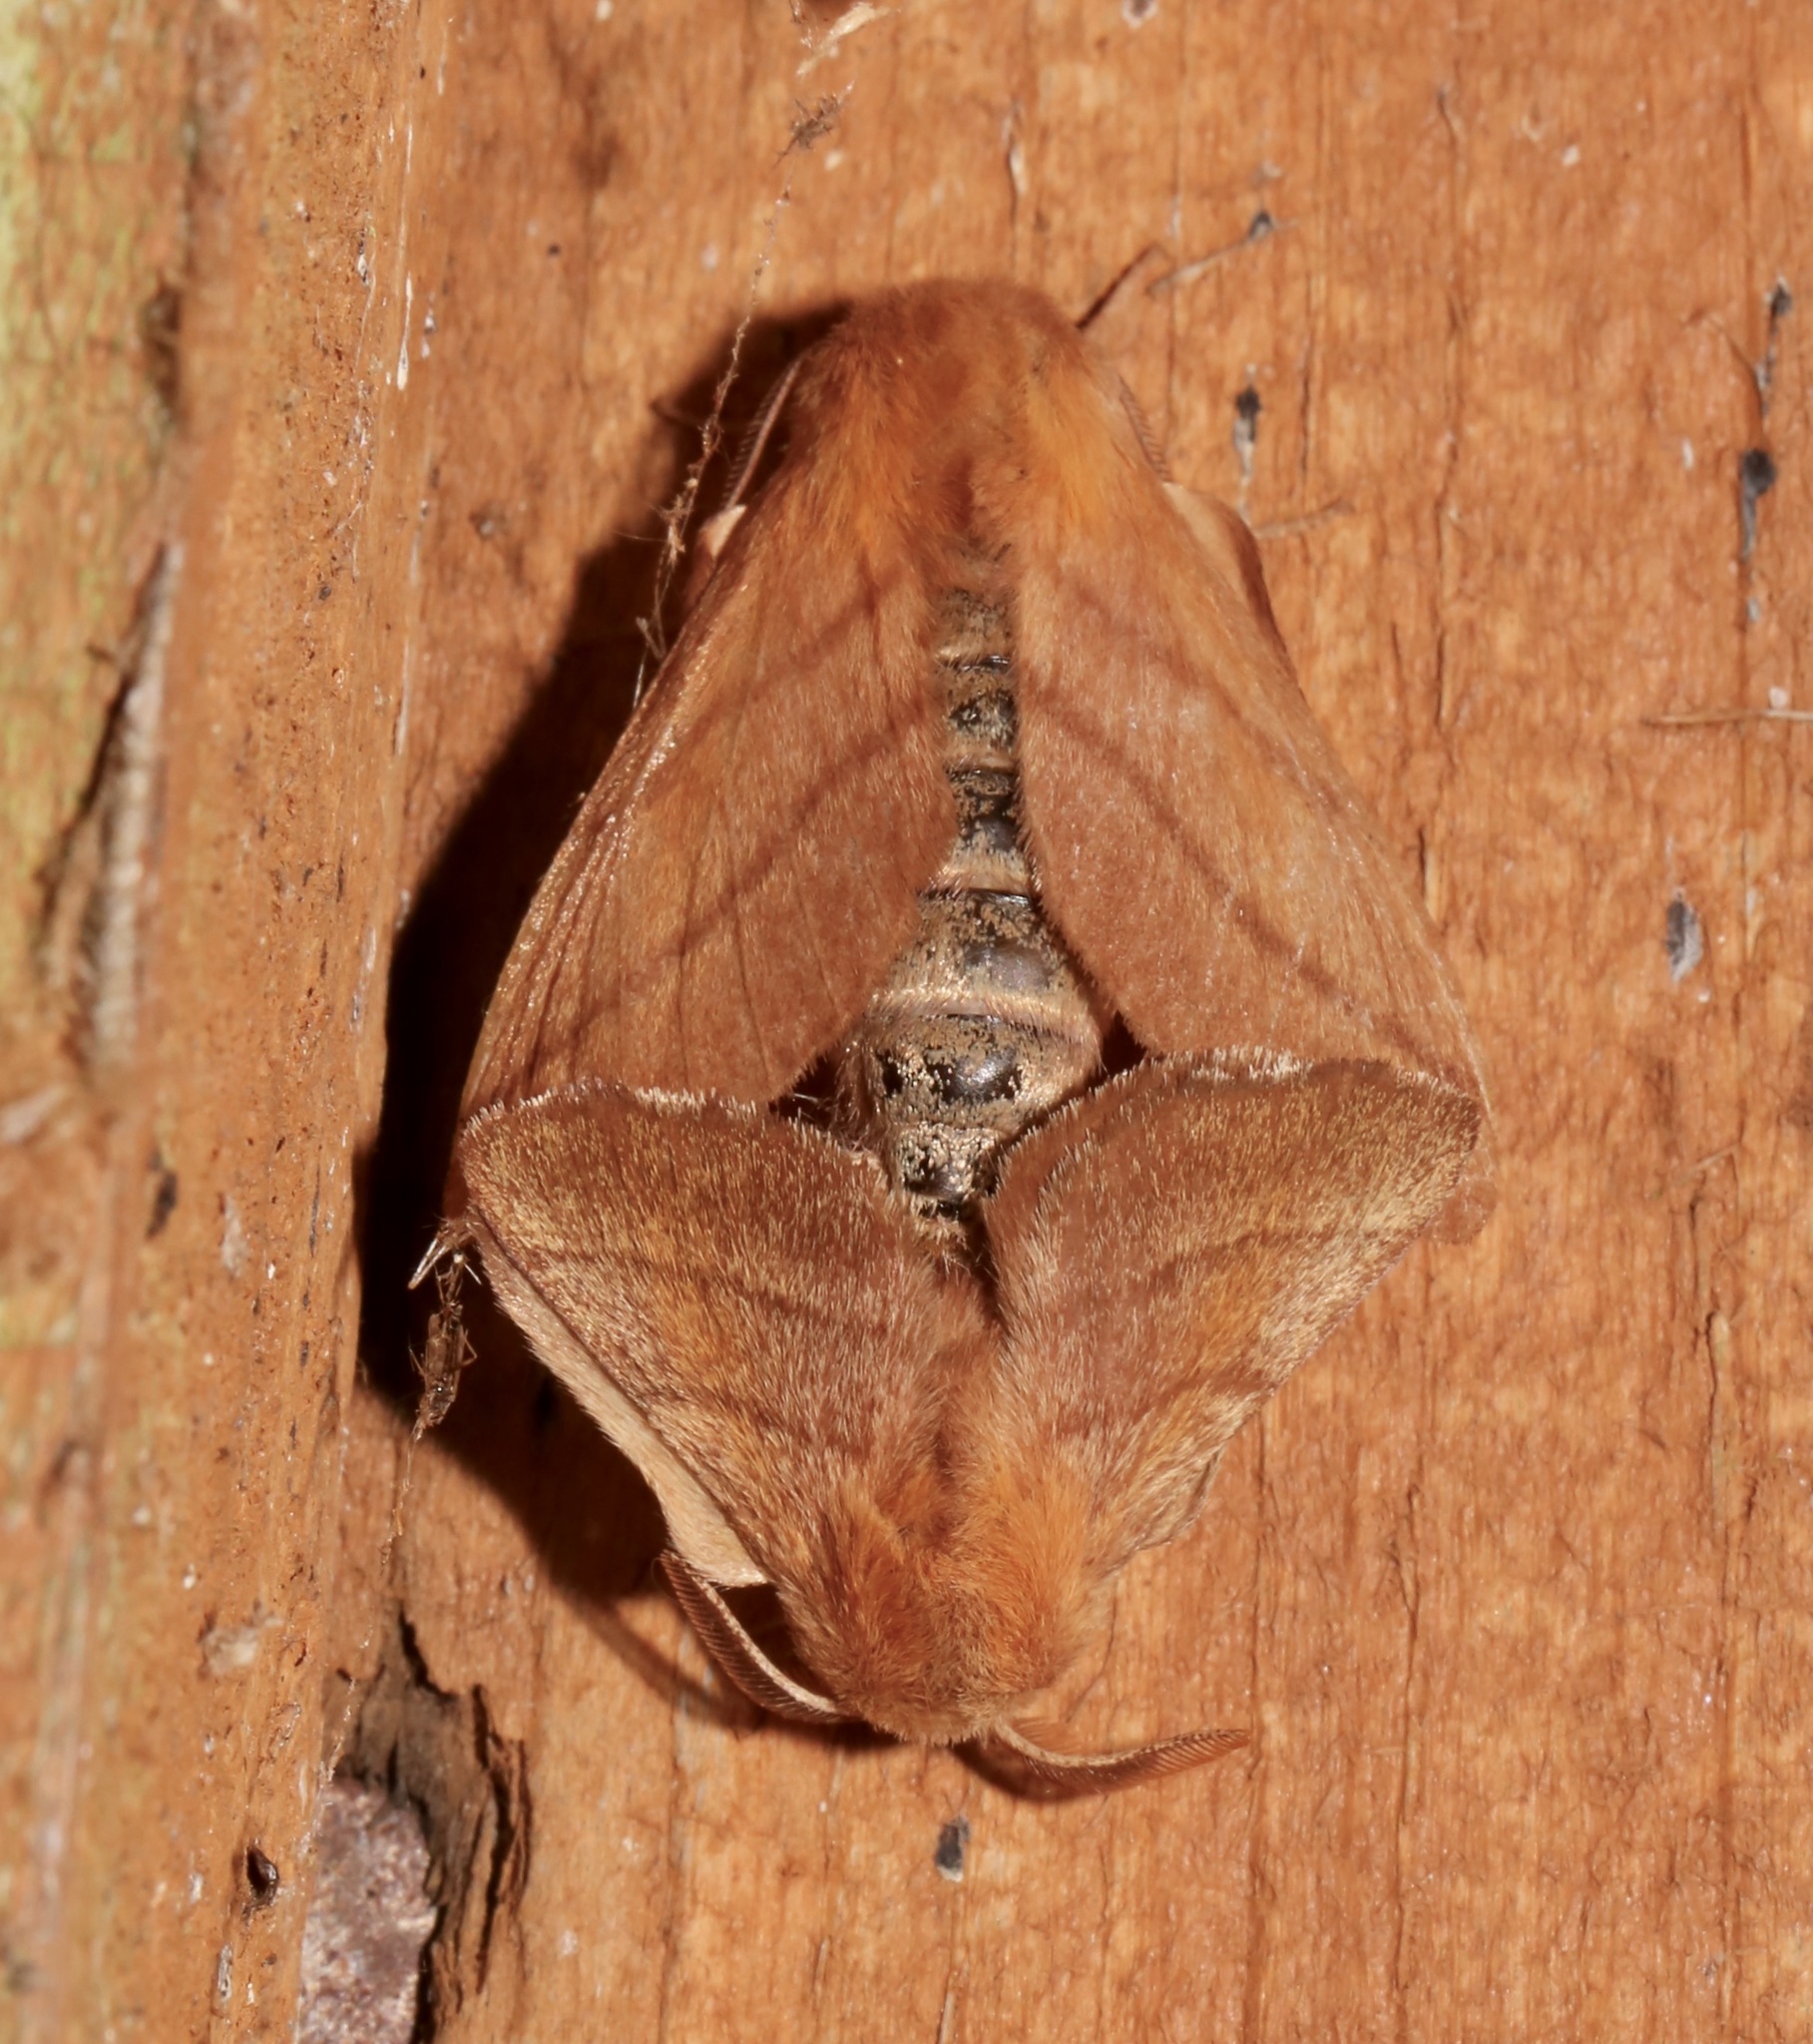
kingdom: Animalia
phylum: Arthropoda
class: Insecta
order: Lepidoptera
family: Lasiocampidae
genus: Malacosoma
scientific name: Malacosoma disstria
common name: Forest tent caterpillar
